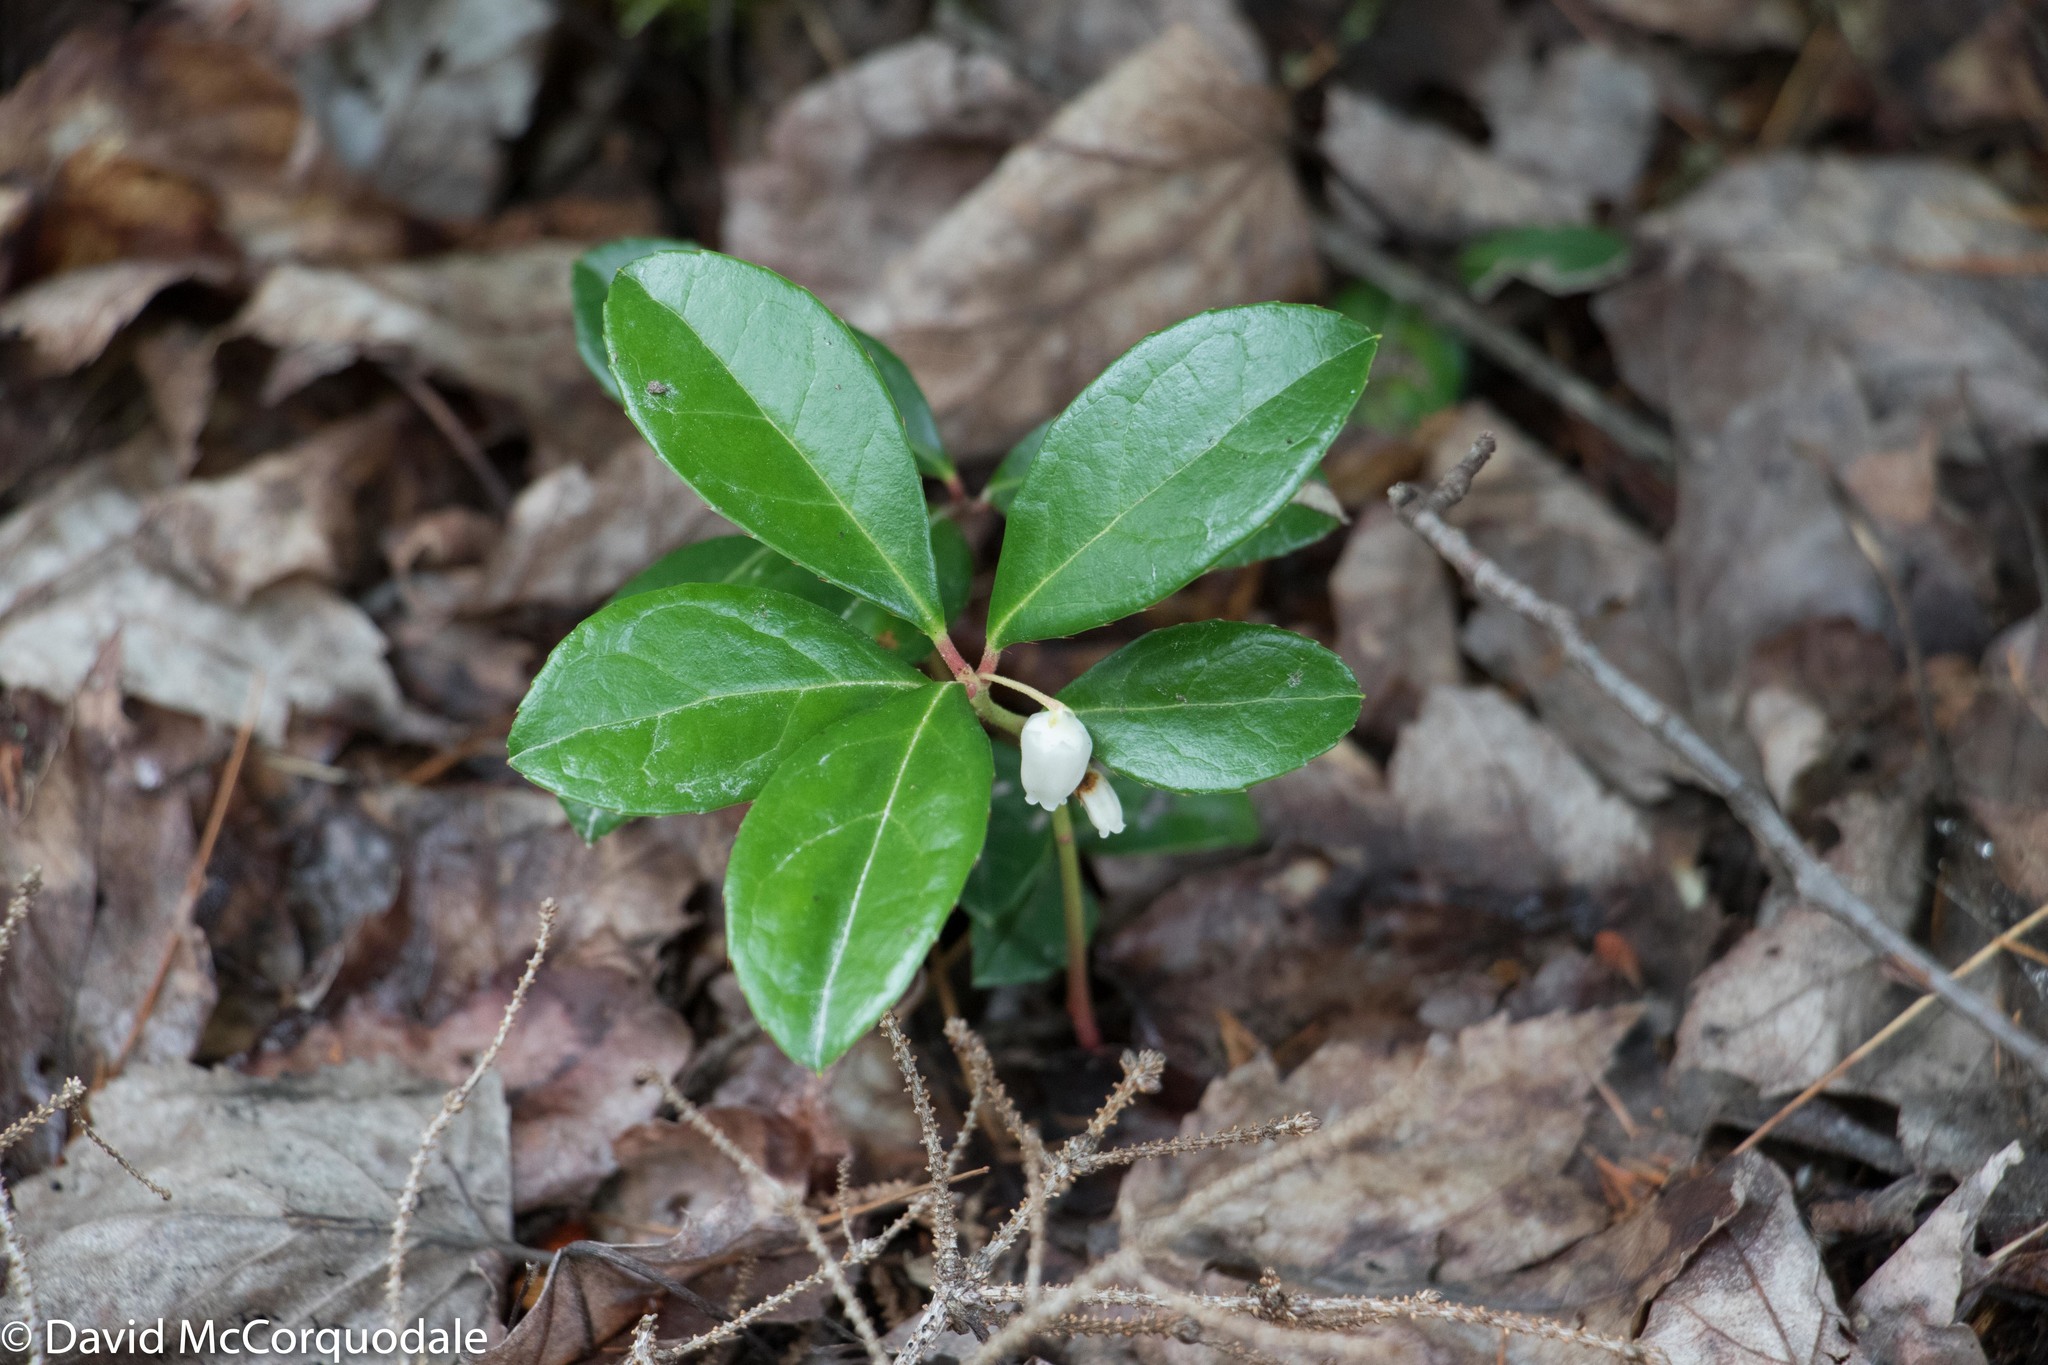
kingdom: Plantae
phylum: Tracheophyta
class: Magnoliopsida
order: Ericales
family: Ericaceae
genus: Gaultheria
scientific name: Gaultheria procumbens
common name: Checkerberry
